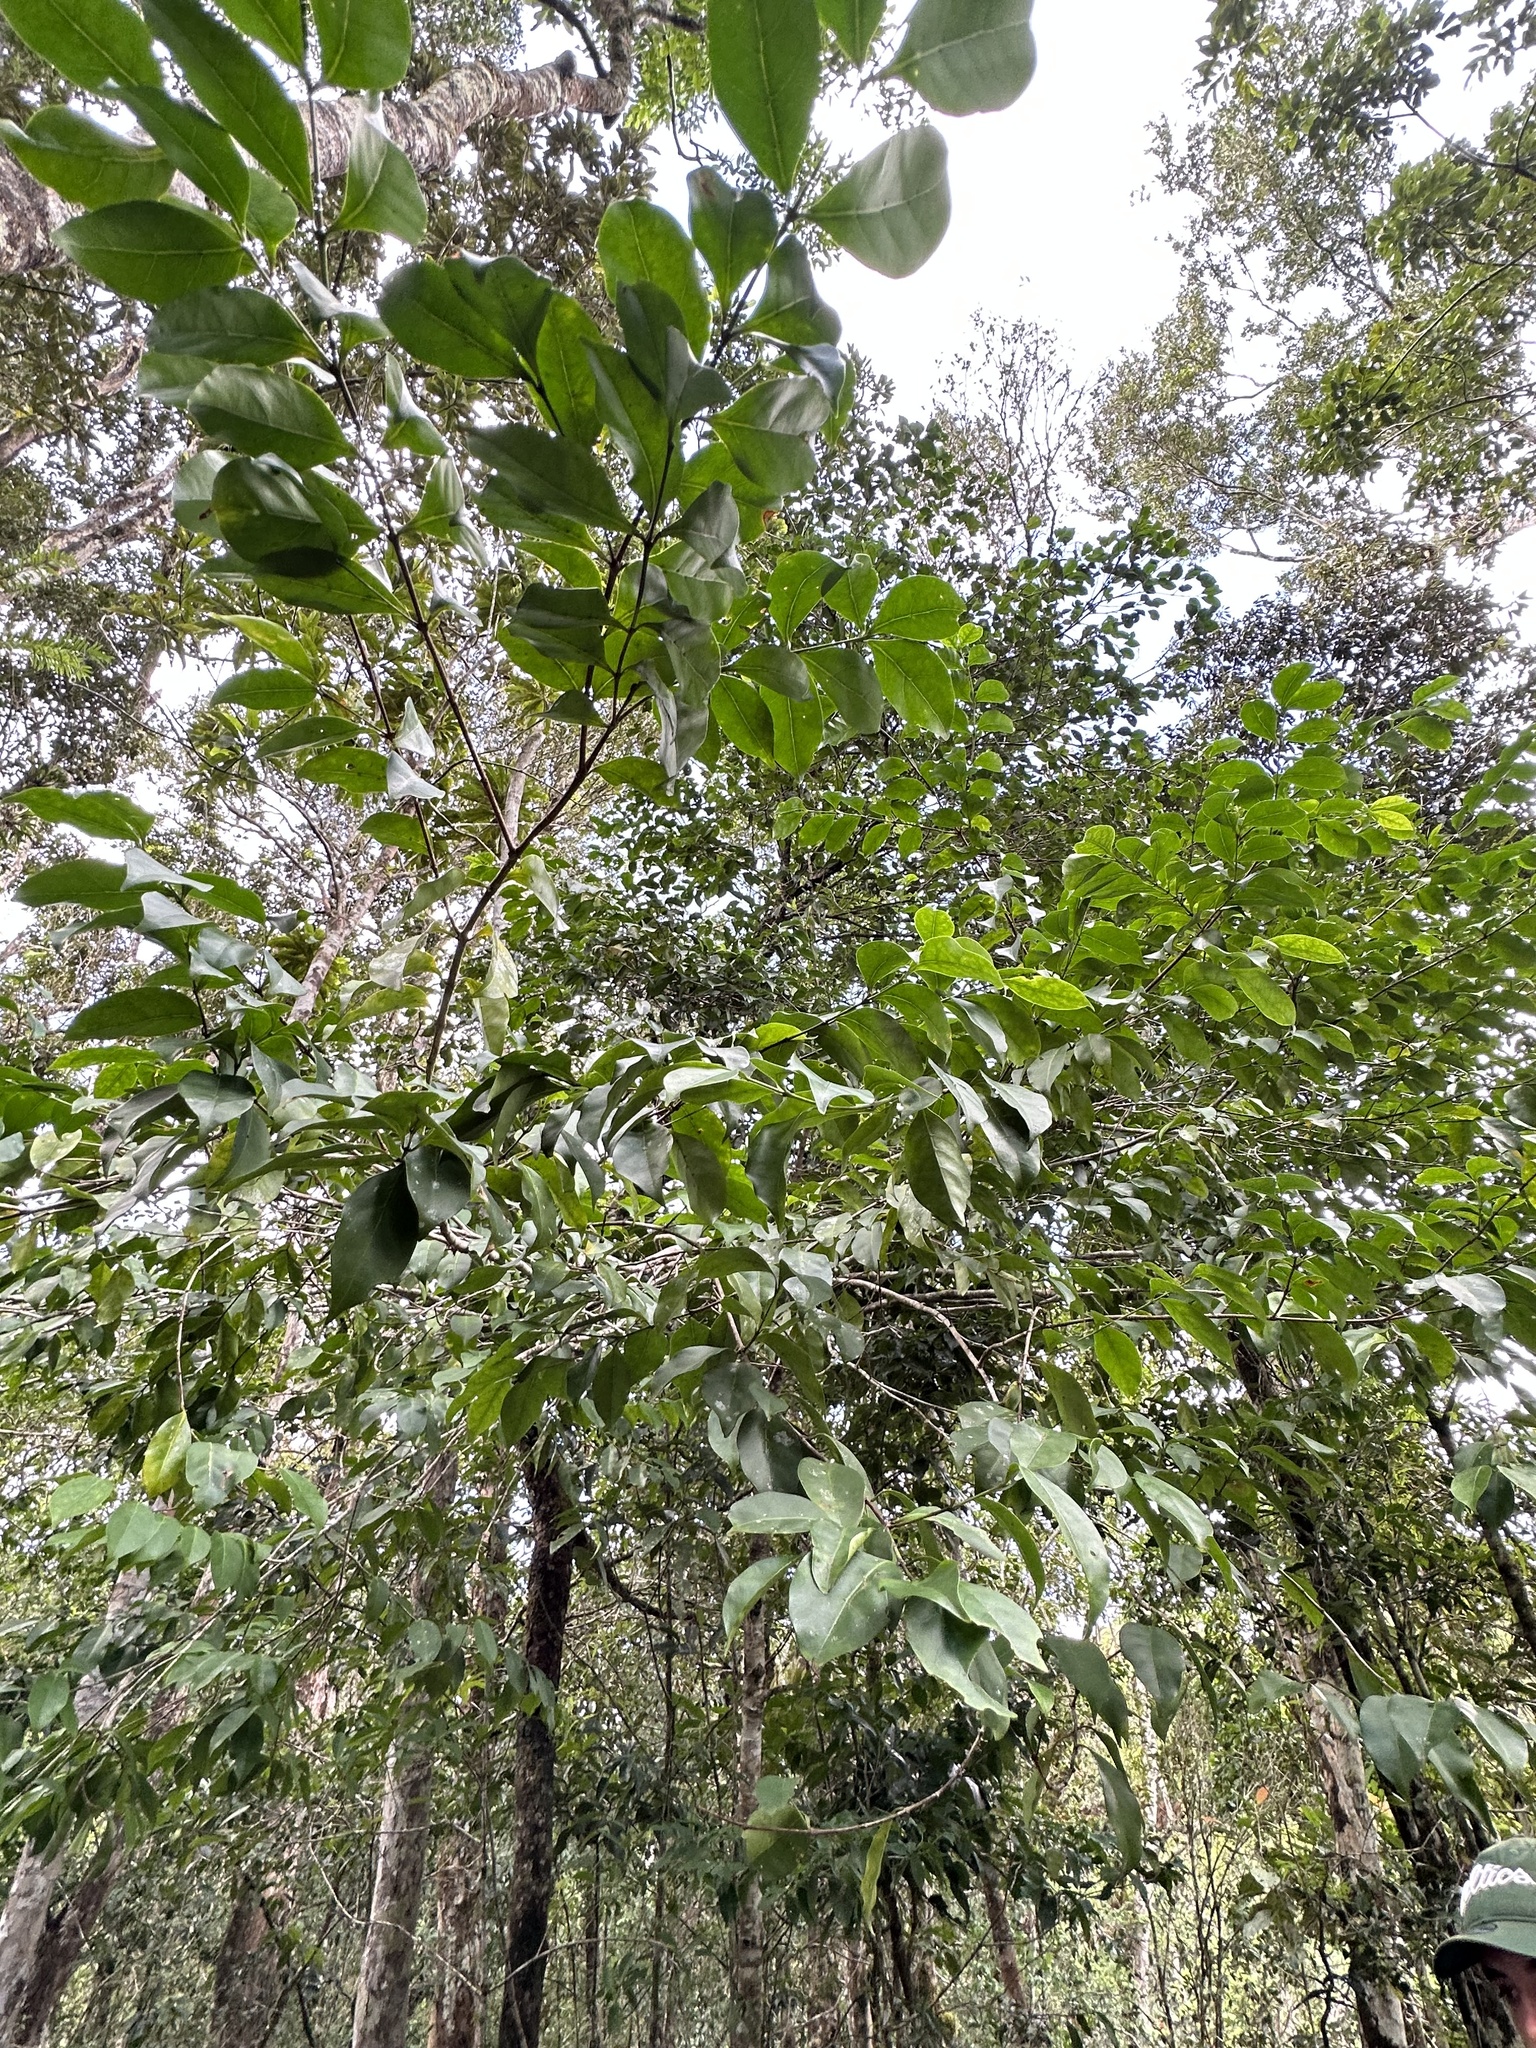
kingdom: Plantae
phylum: Tracheophyta
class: Magnoliopsida
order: Gentianales
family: Rubiaceae
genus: Cyclophyllum
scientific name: Cyclophyllum protractum
